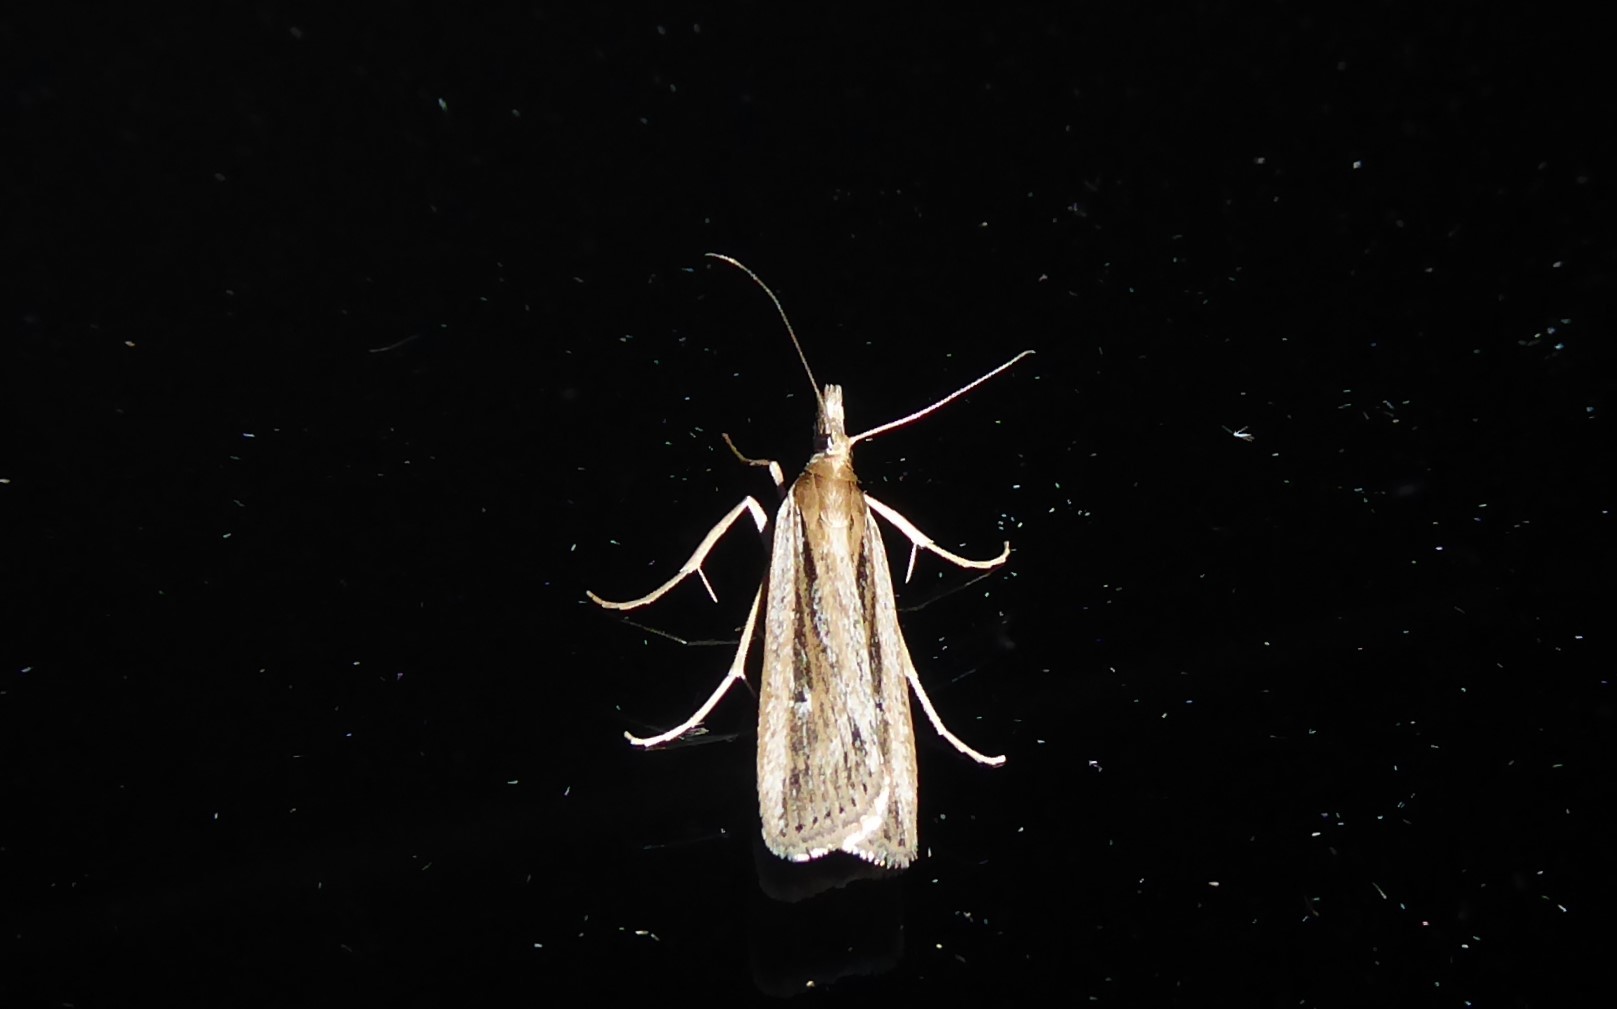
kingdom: Animalia
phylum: Arthropoda
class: Insecta
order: Lepidoptera
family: Crambidae
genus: Eudonia
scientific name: Eudonia sabulosella
